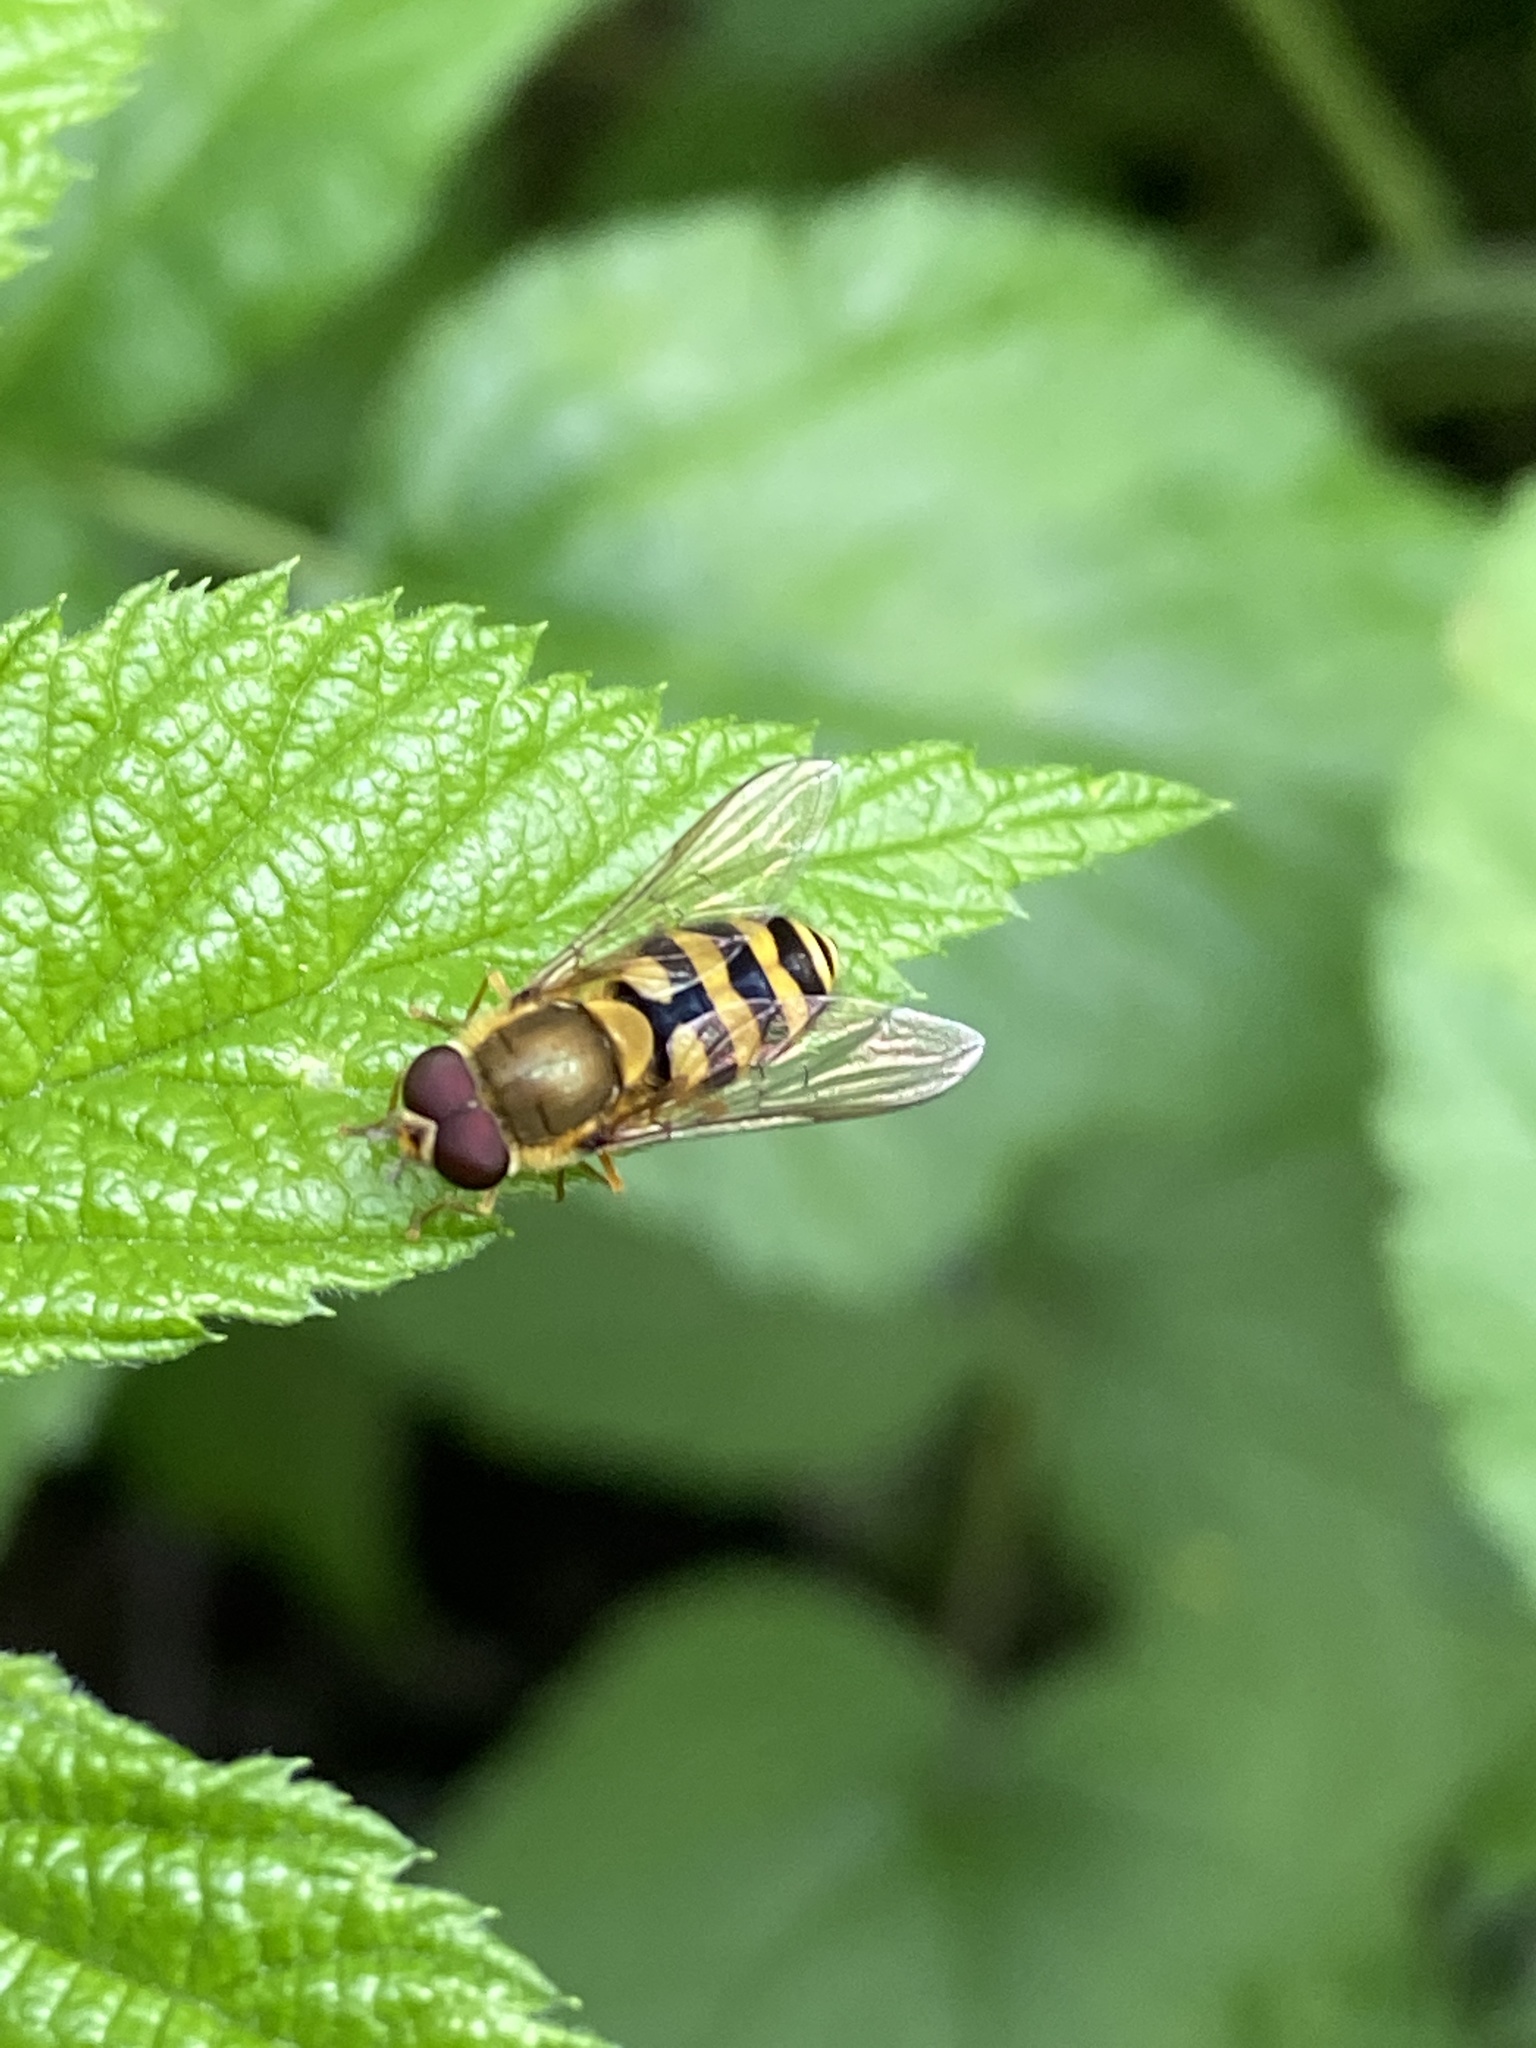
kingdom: Animalia
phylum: Arthropoda
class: Insecta
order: Diptera
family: Syrphidae
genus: Syrphus
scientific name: Syrphus
